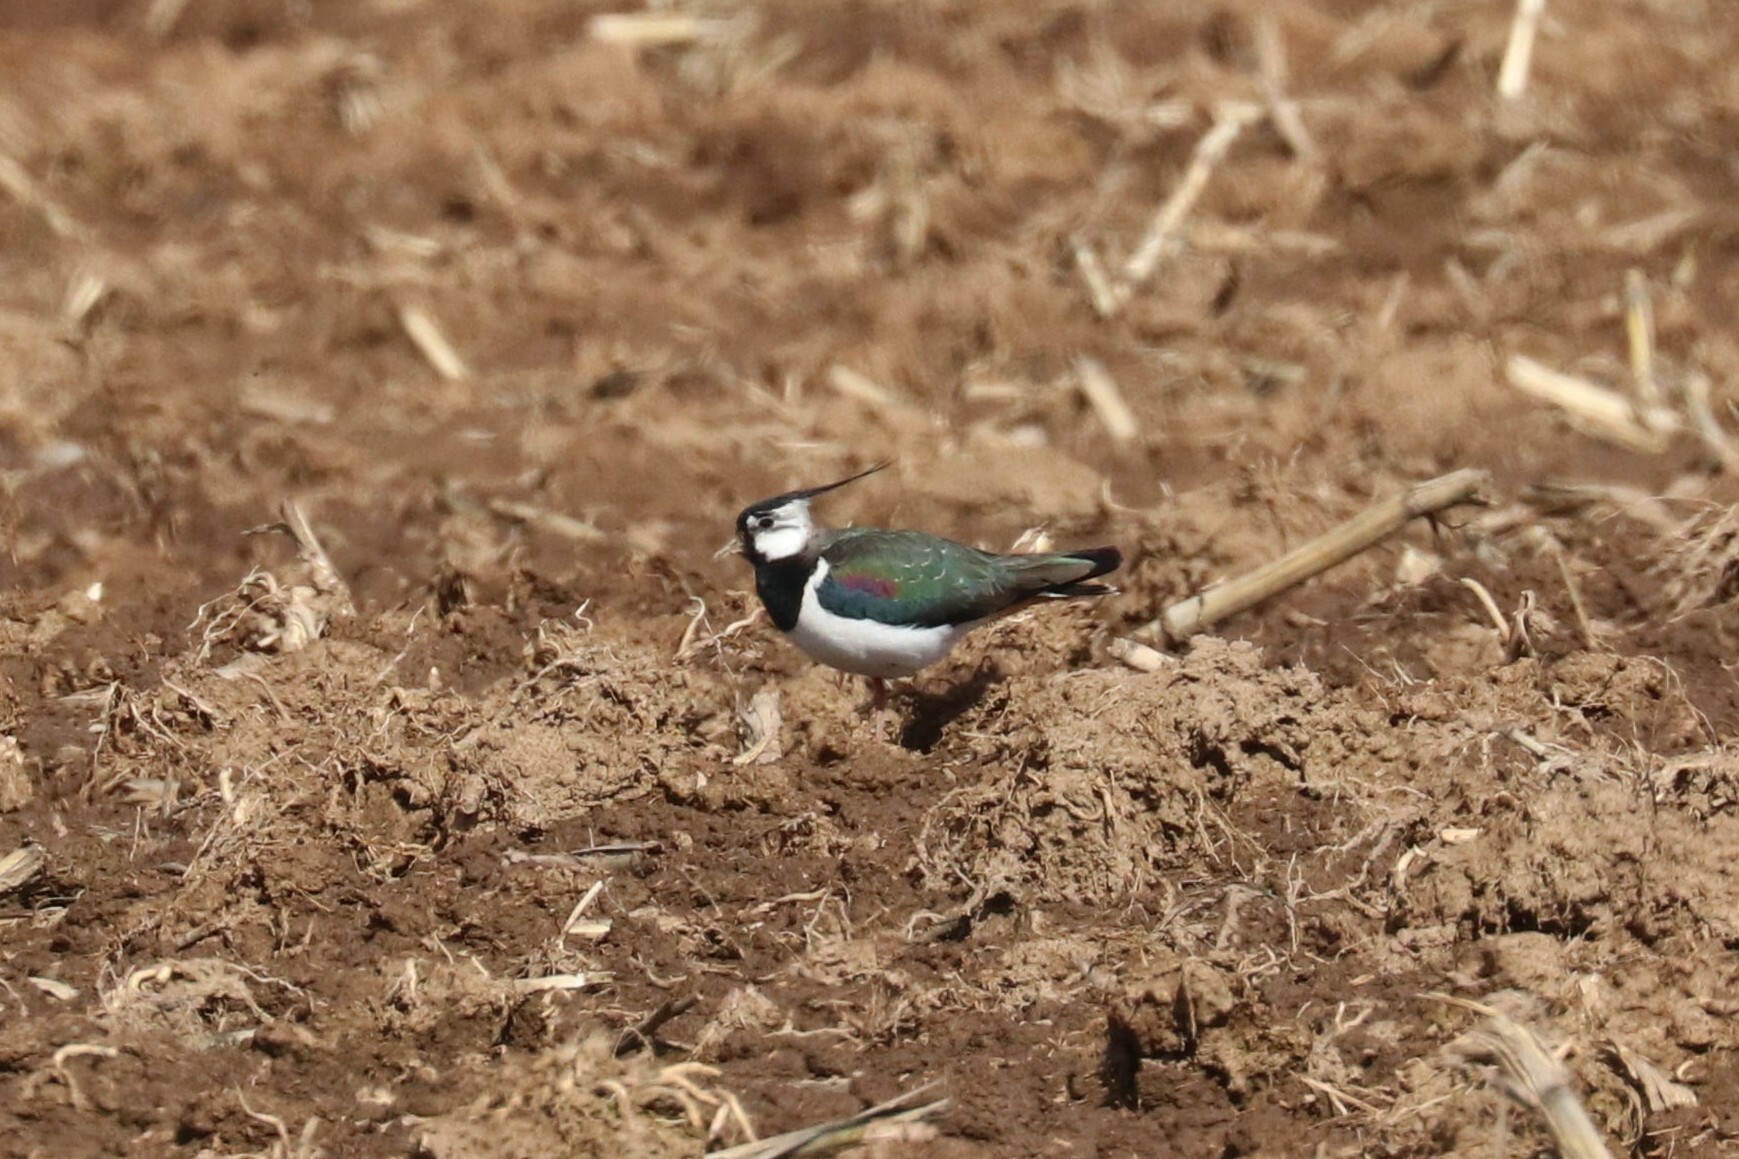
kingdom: Animalia
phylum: Chordata
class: Aves
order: Charadriiformes
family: Charadriidae
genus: Vanellus
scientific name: Vanellus vanellus
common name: Northern lapwing
